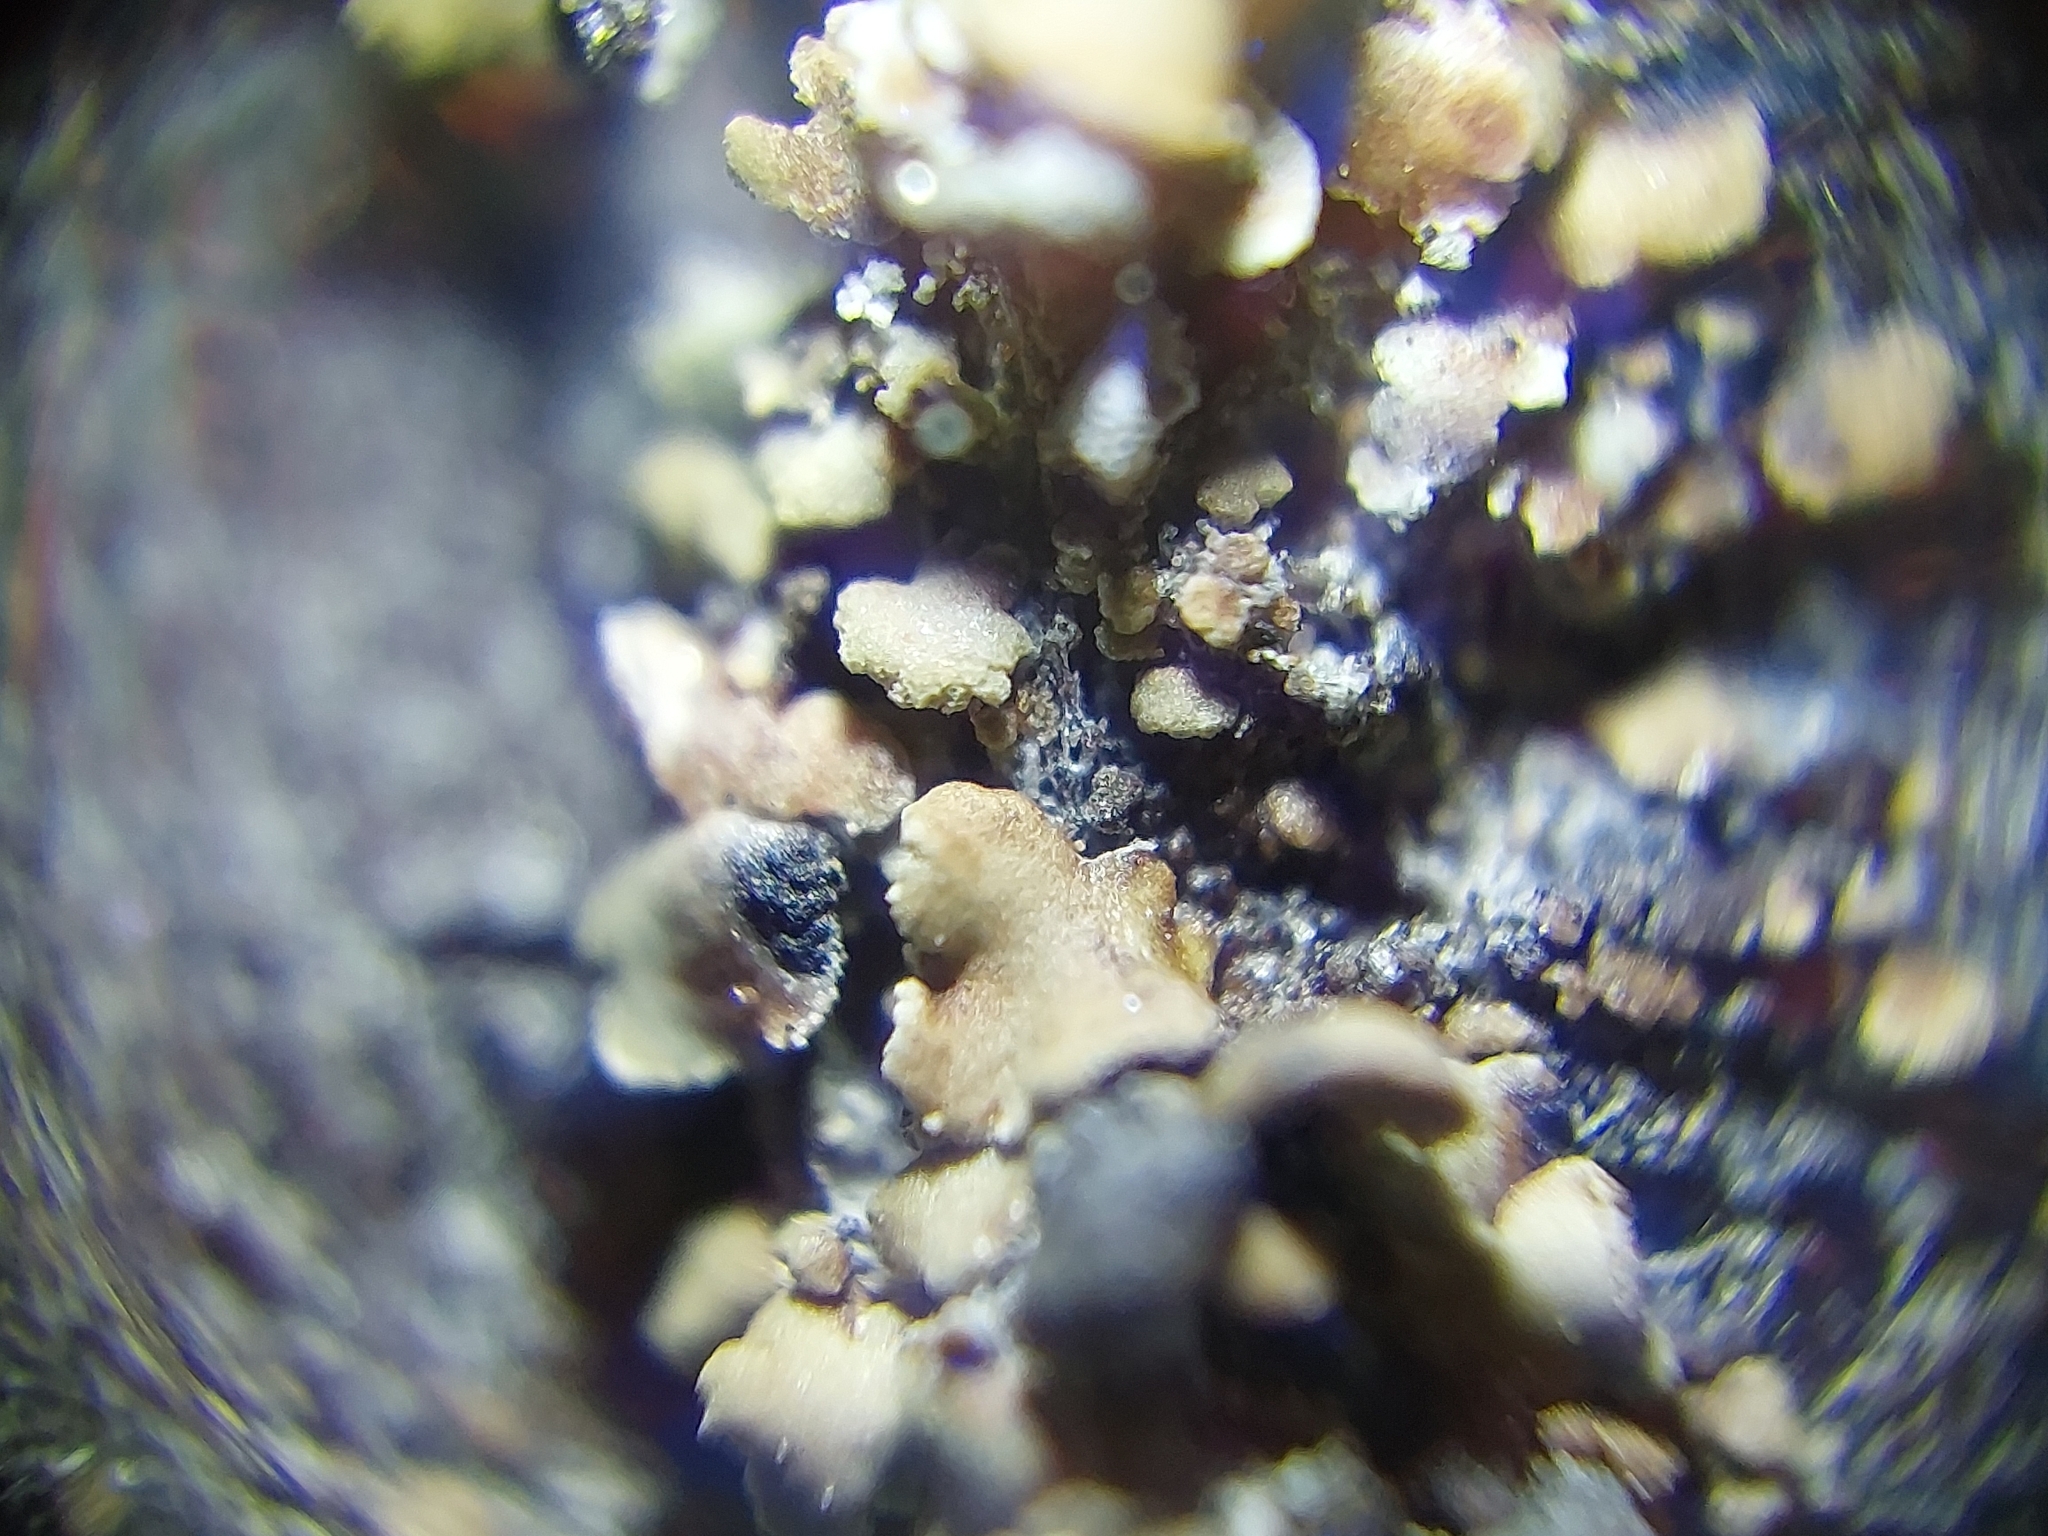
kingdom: Fungi
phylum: Ascomycota
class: Lecanoromycetes
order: Umbilicariales
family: Ophioparmaceae
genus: Hypocenomyce
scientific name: Hypocenomyce scalaris
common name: Common clam lichen
